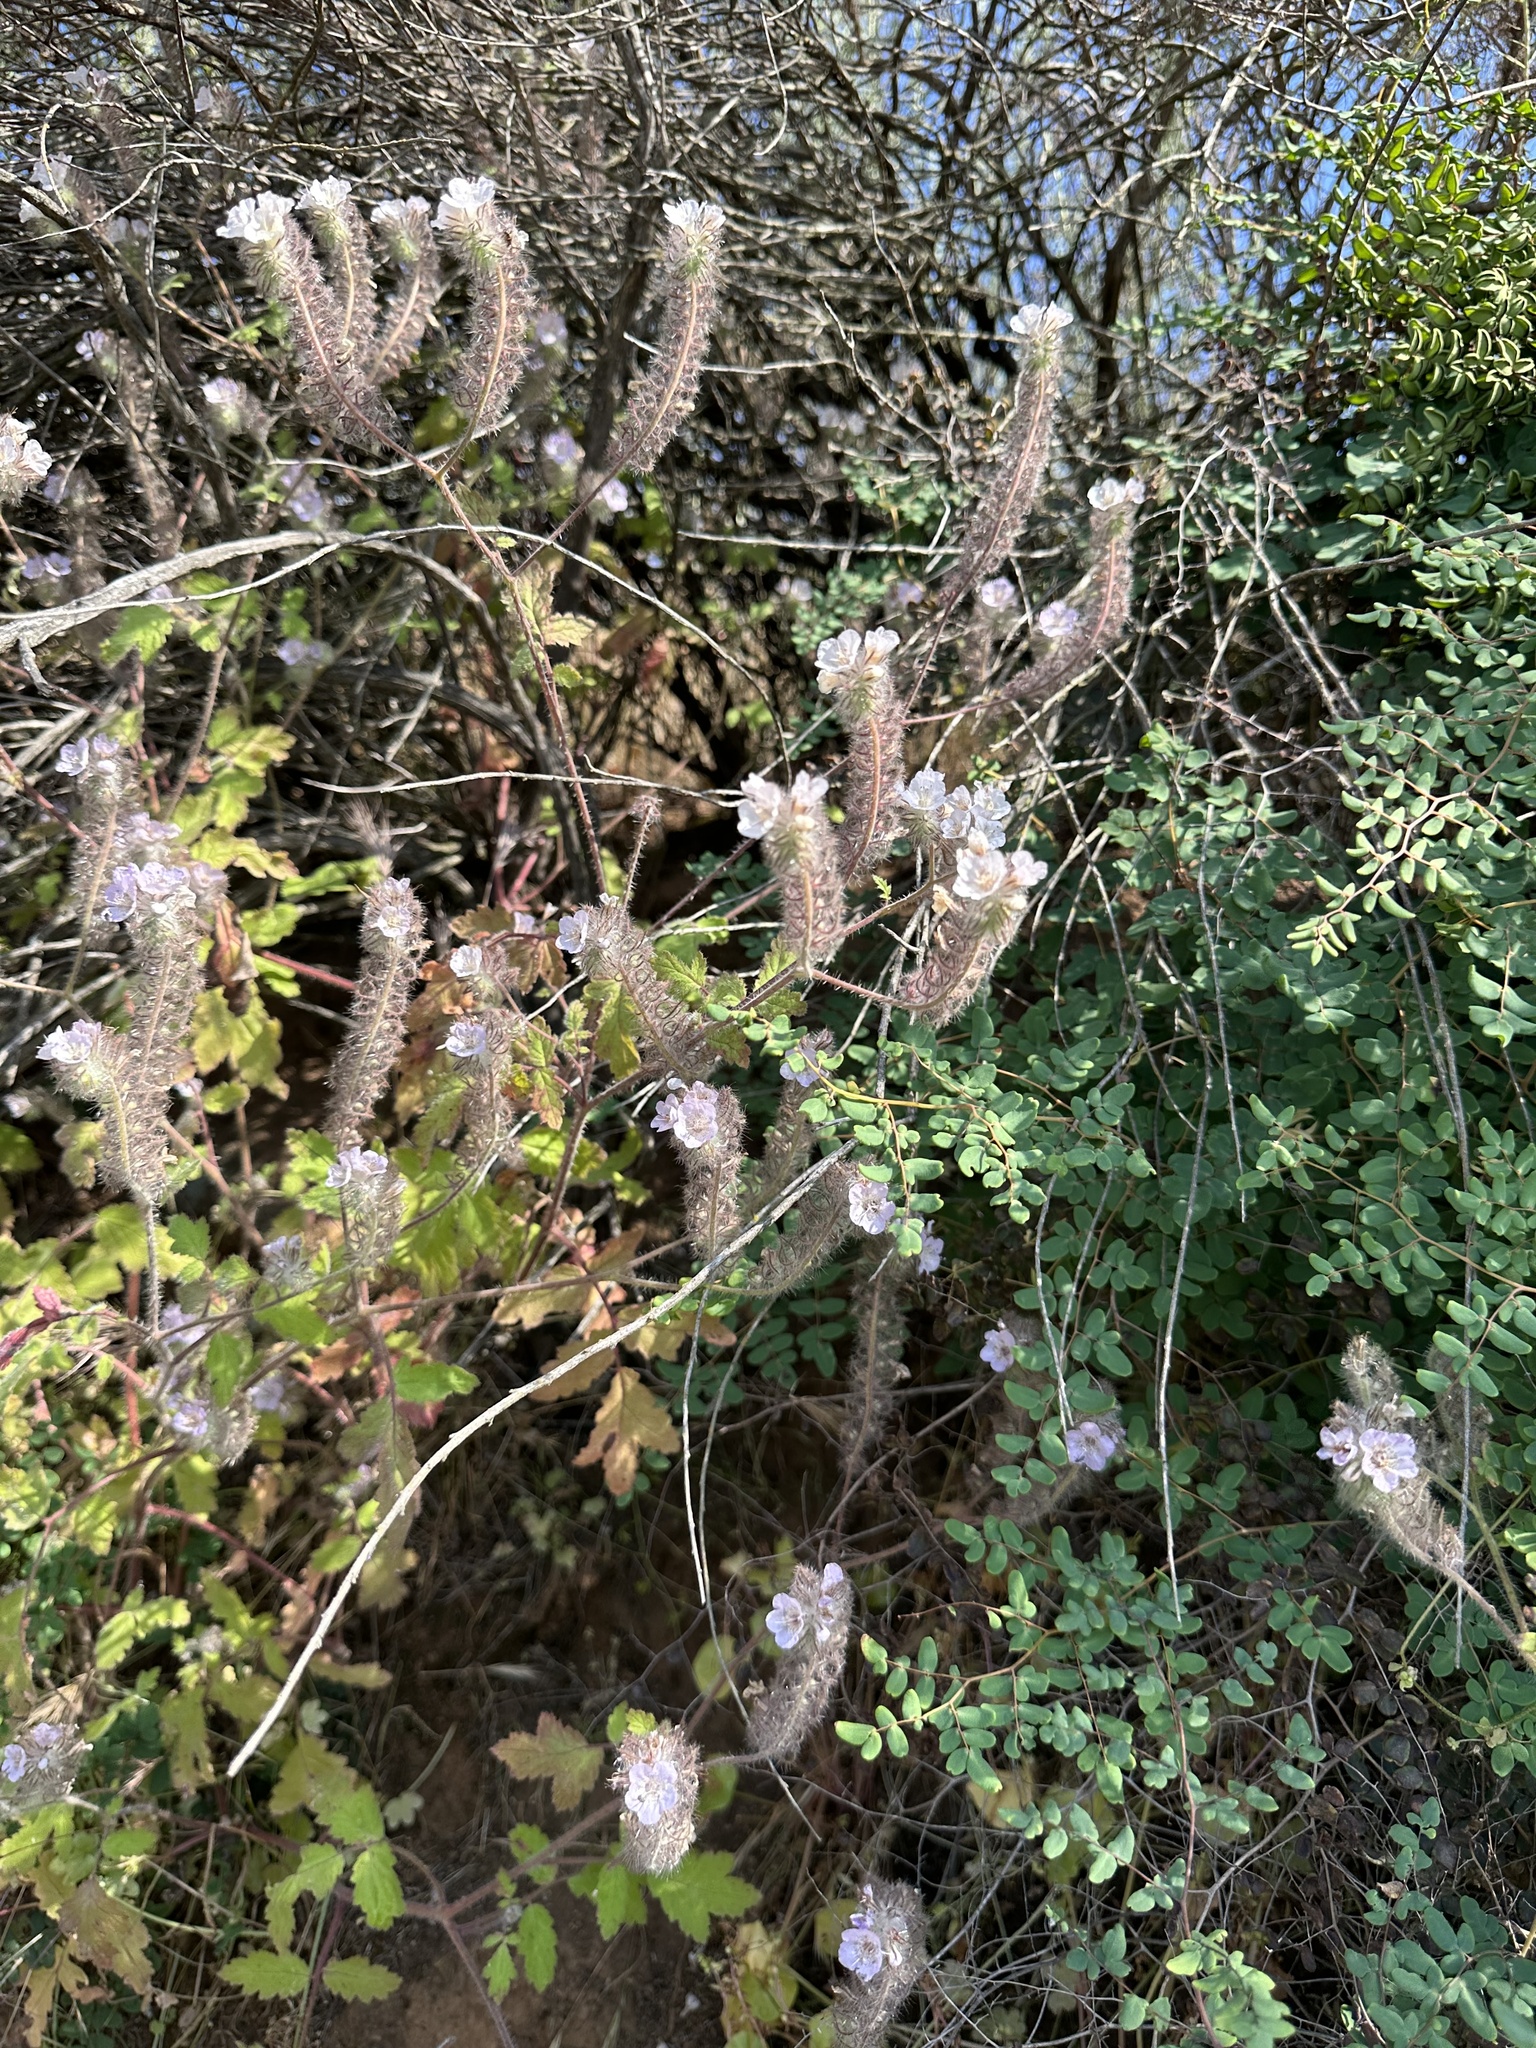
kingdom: Plantae
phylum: Tracheophyta
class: Magnoliopsida
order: Boraginales
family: Hydrophyllaceae
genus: Phacelia
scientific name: Phacelia cicutaria
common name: Caterpillar phacelia
